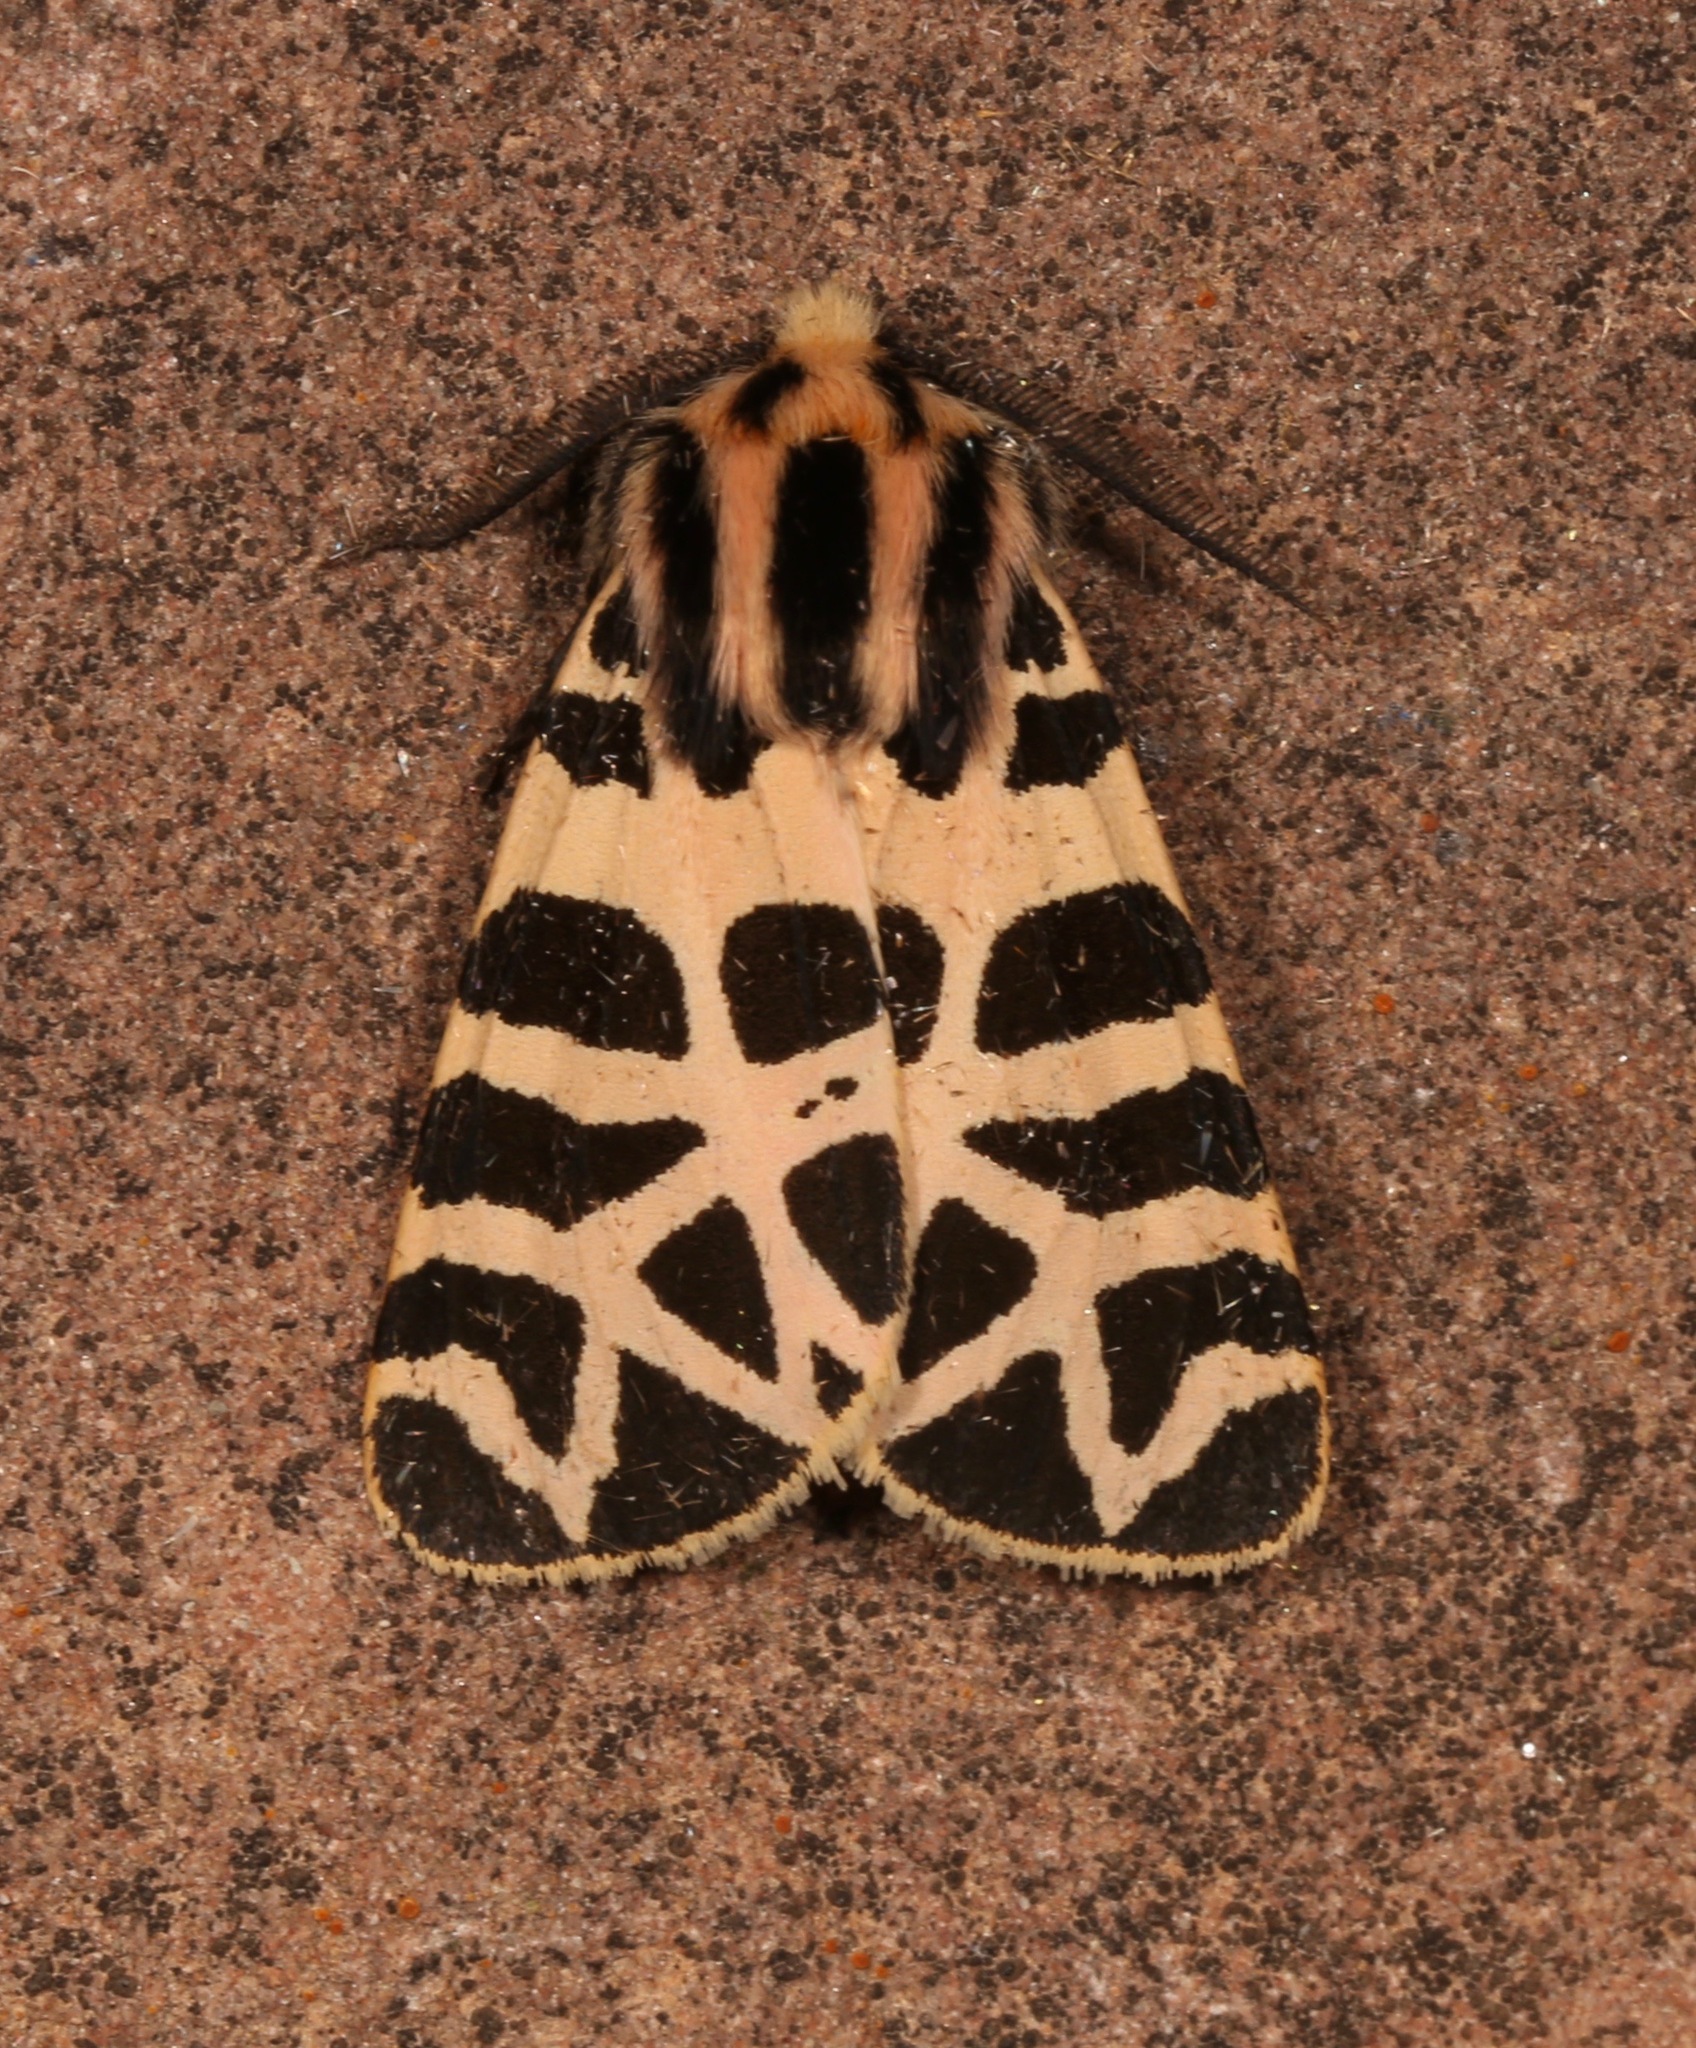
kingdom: Animalia
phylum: Arthropoda
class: Insecta
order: Lepidoptera
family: Erebidae
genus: Apantesis
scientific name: Apantesis incorrupta
